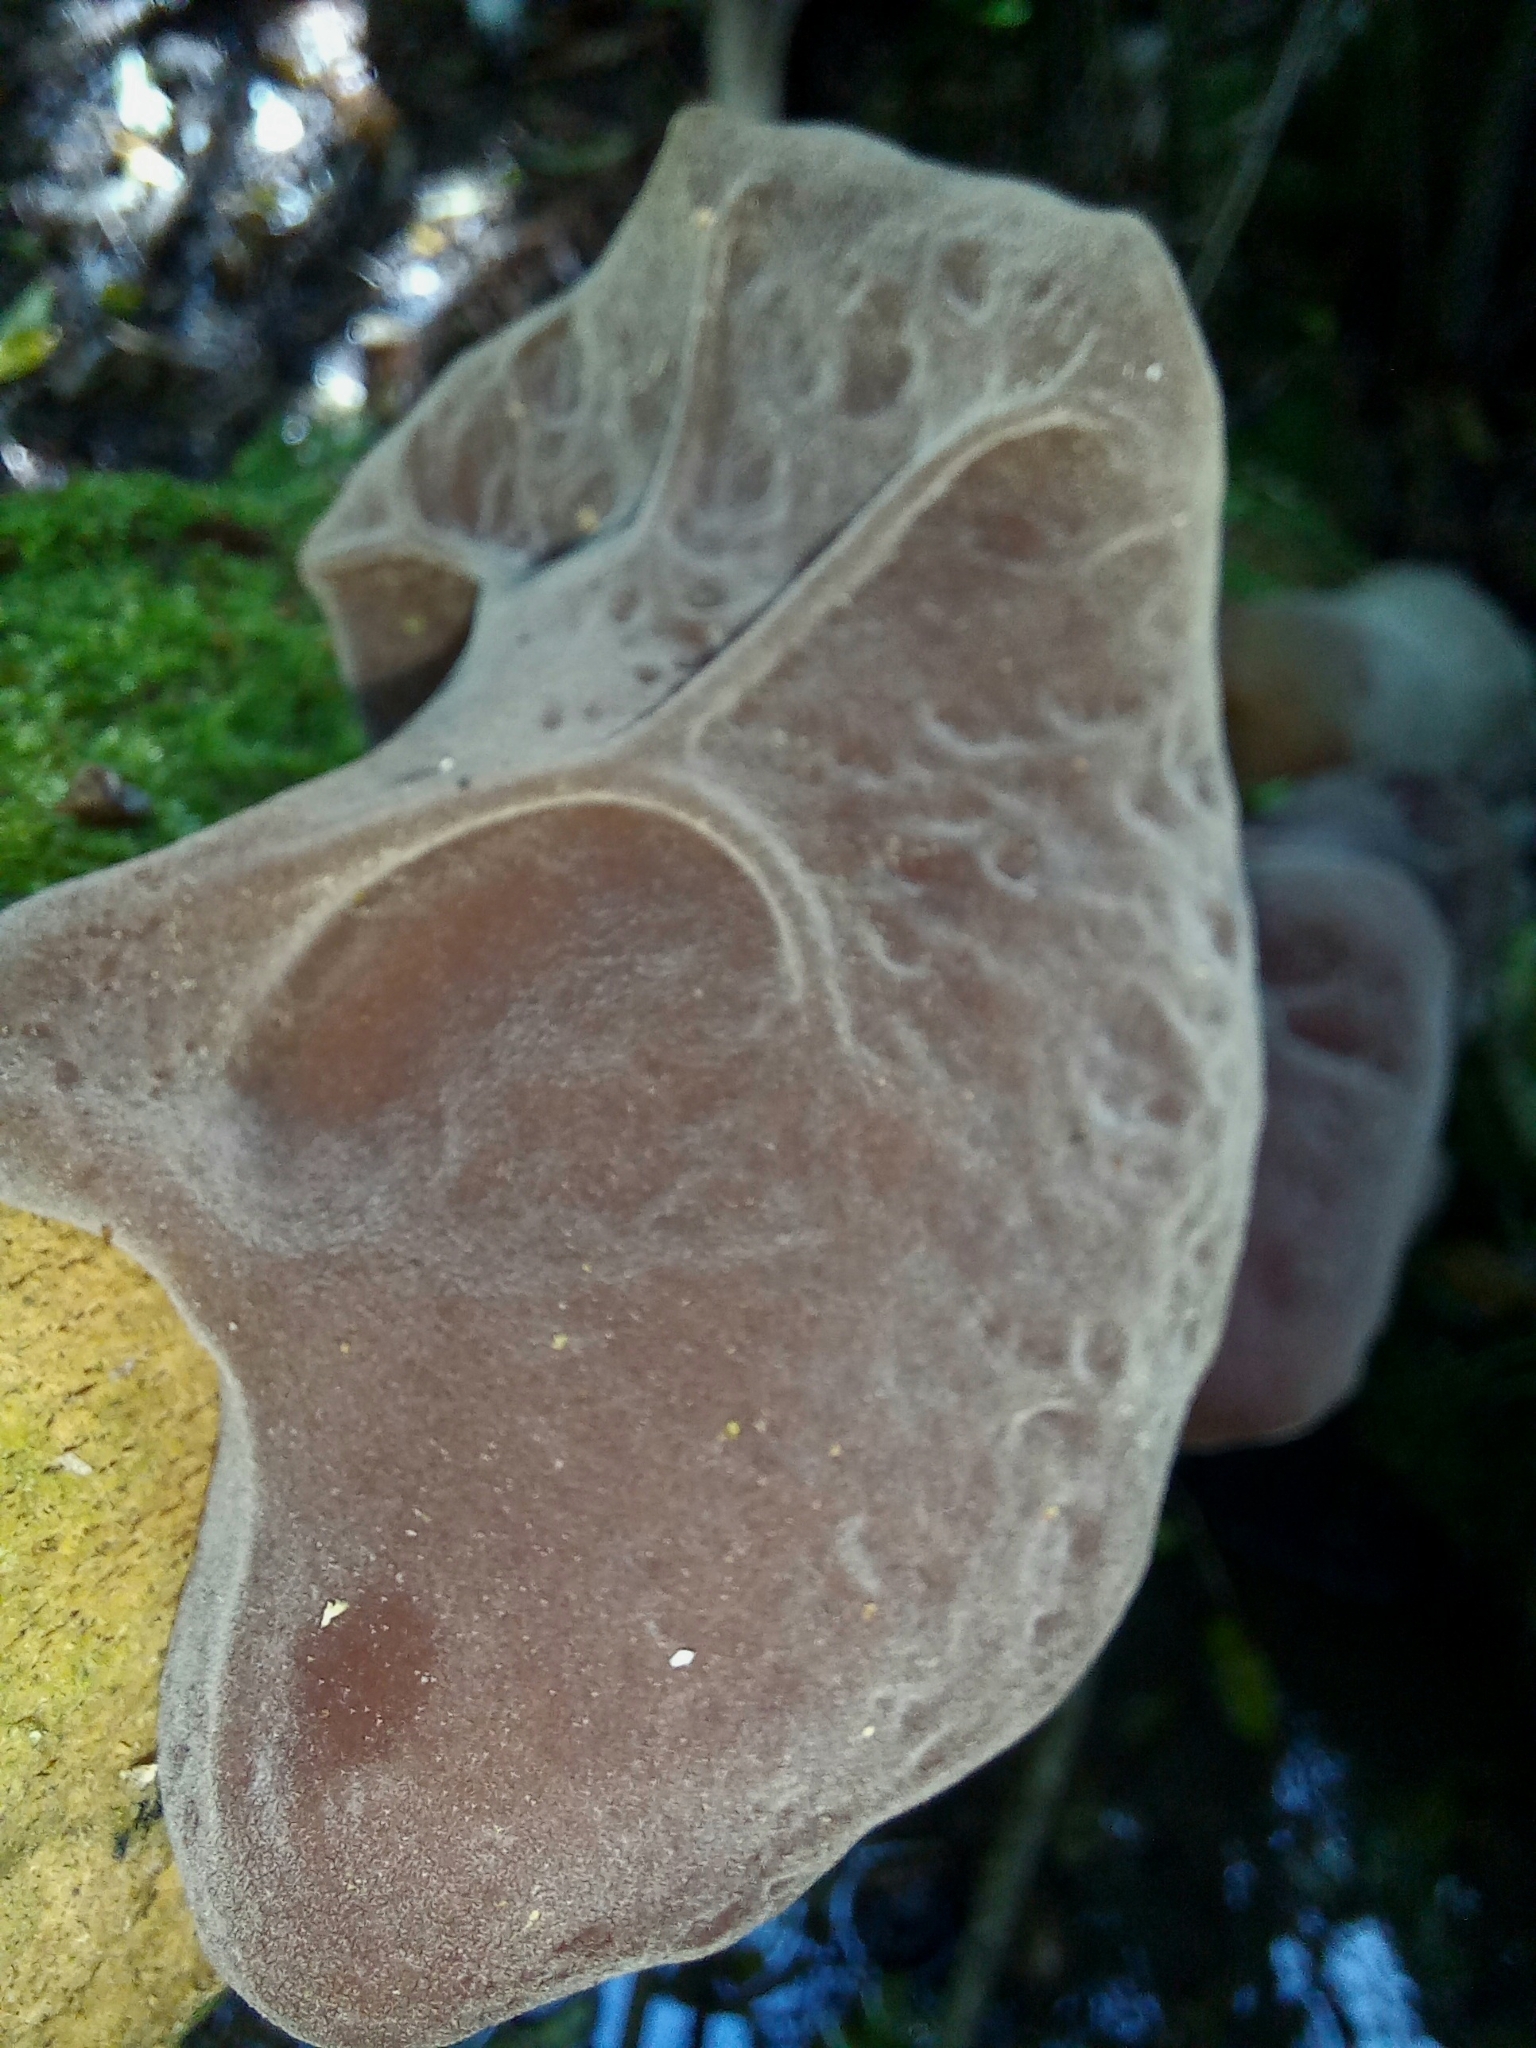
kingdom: Fungi
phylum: Basidiomycota
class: Agaricomycetes
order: Auriculariales
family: Auriculariaceae
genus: Auricularia
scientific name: Auricularia cornea
